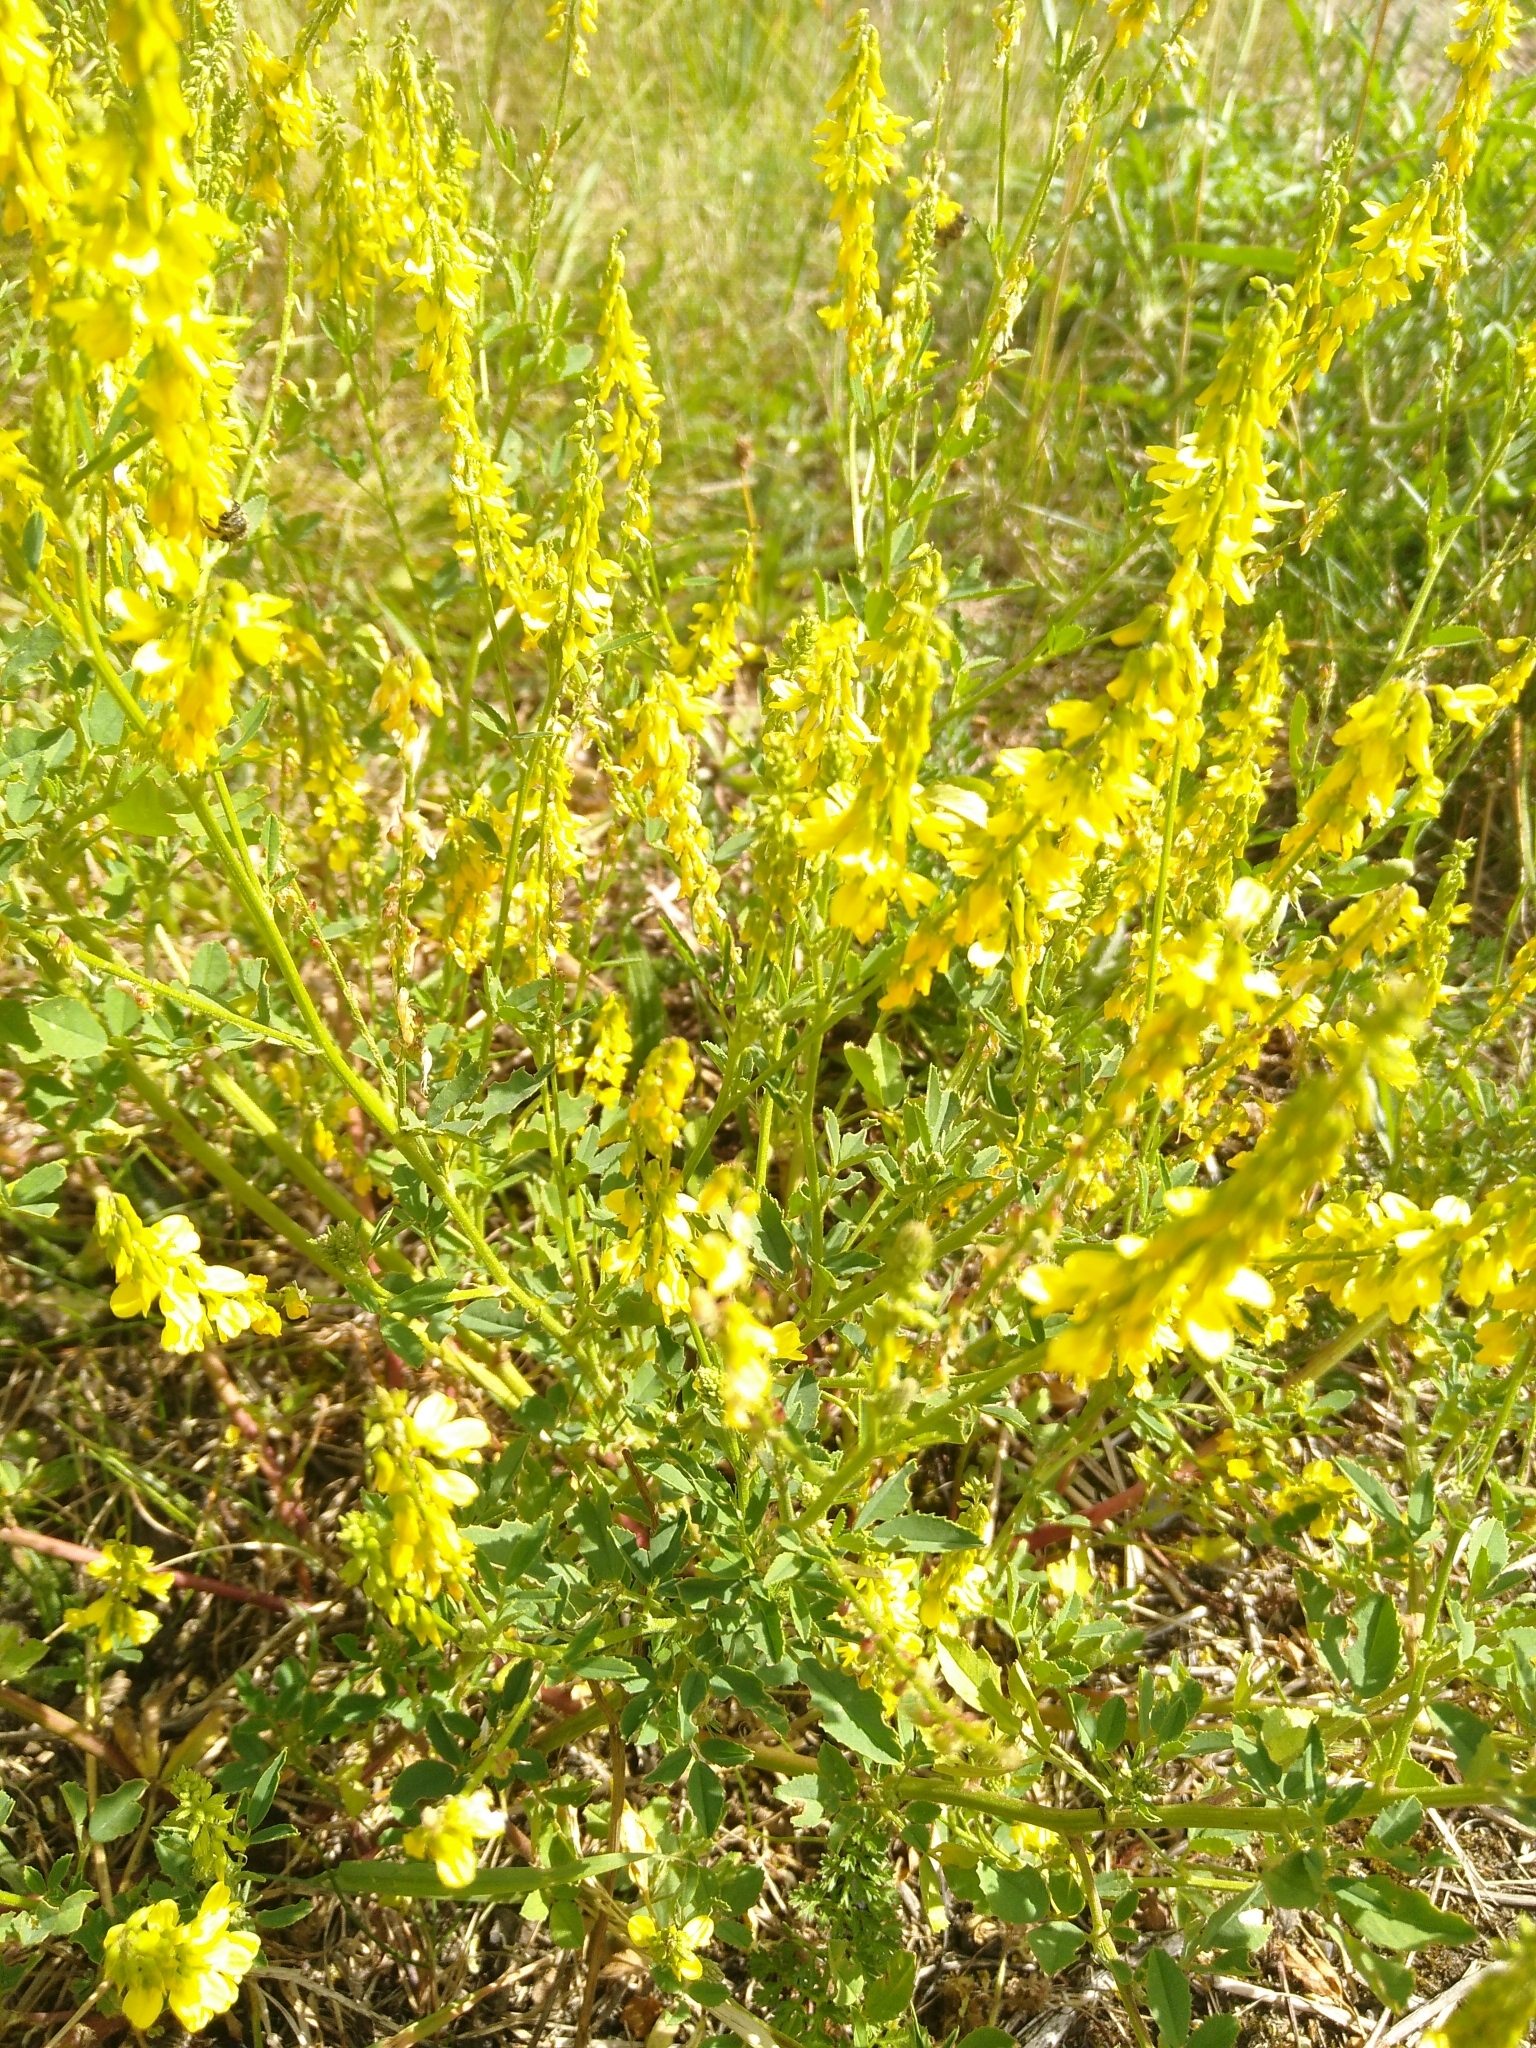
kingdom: Plantae
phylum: Tracheophyta
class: Magnoliopsida
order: Fabales
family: Fabaceae
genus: Melilotus
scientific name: Melilotus officinalis
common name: Sweetclover
